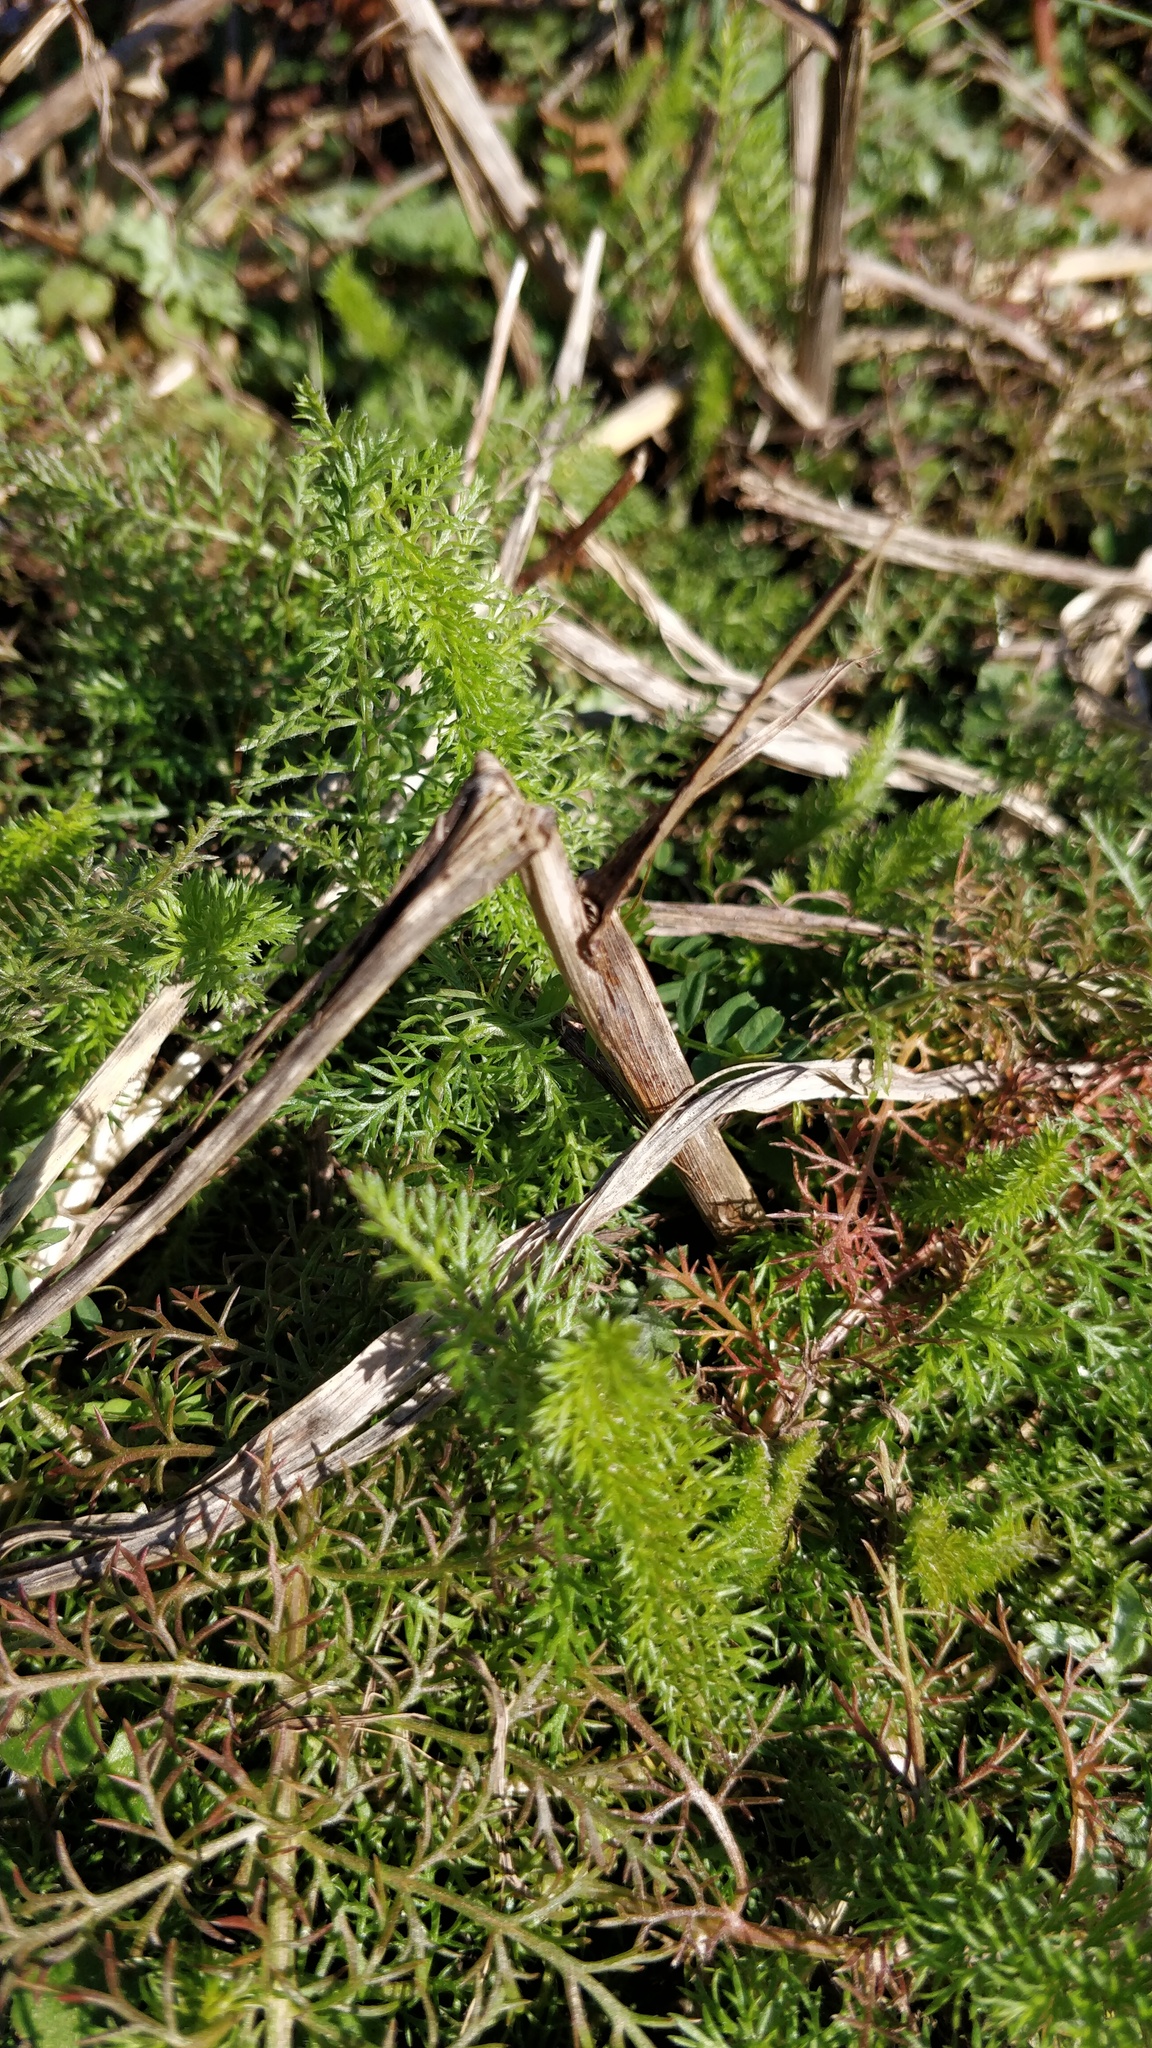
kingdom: Plantae
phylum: Tracheophyta
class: Magnoliopsida
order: Asterales
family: Asteraceae
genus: Achillea
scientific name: Achillea millefolium
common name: Yarrow
